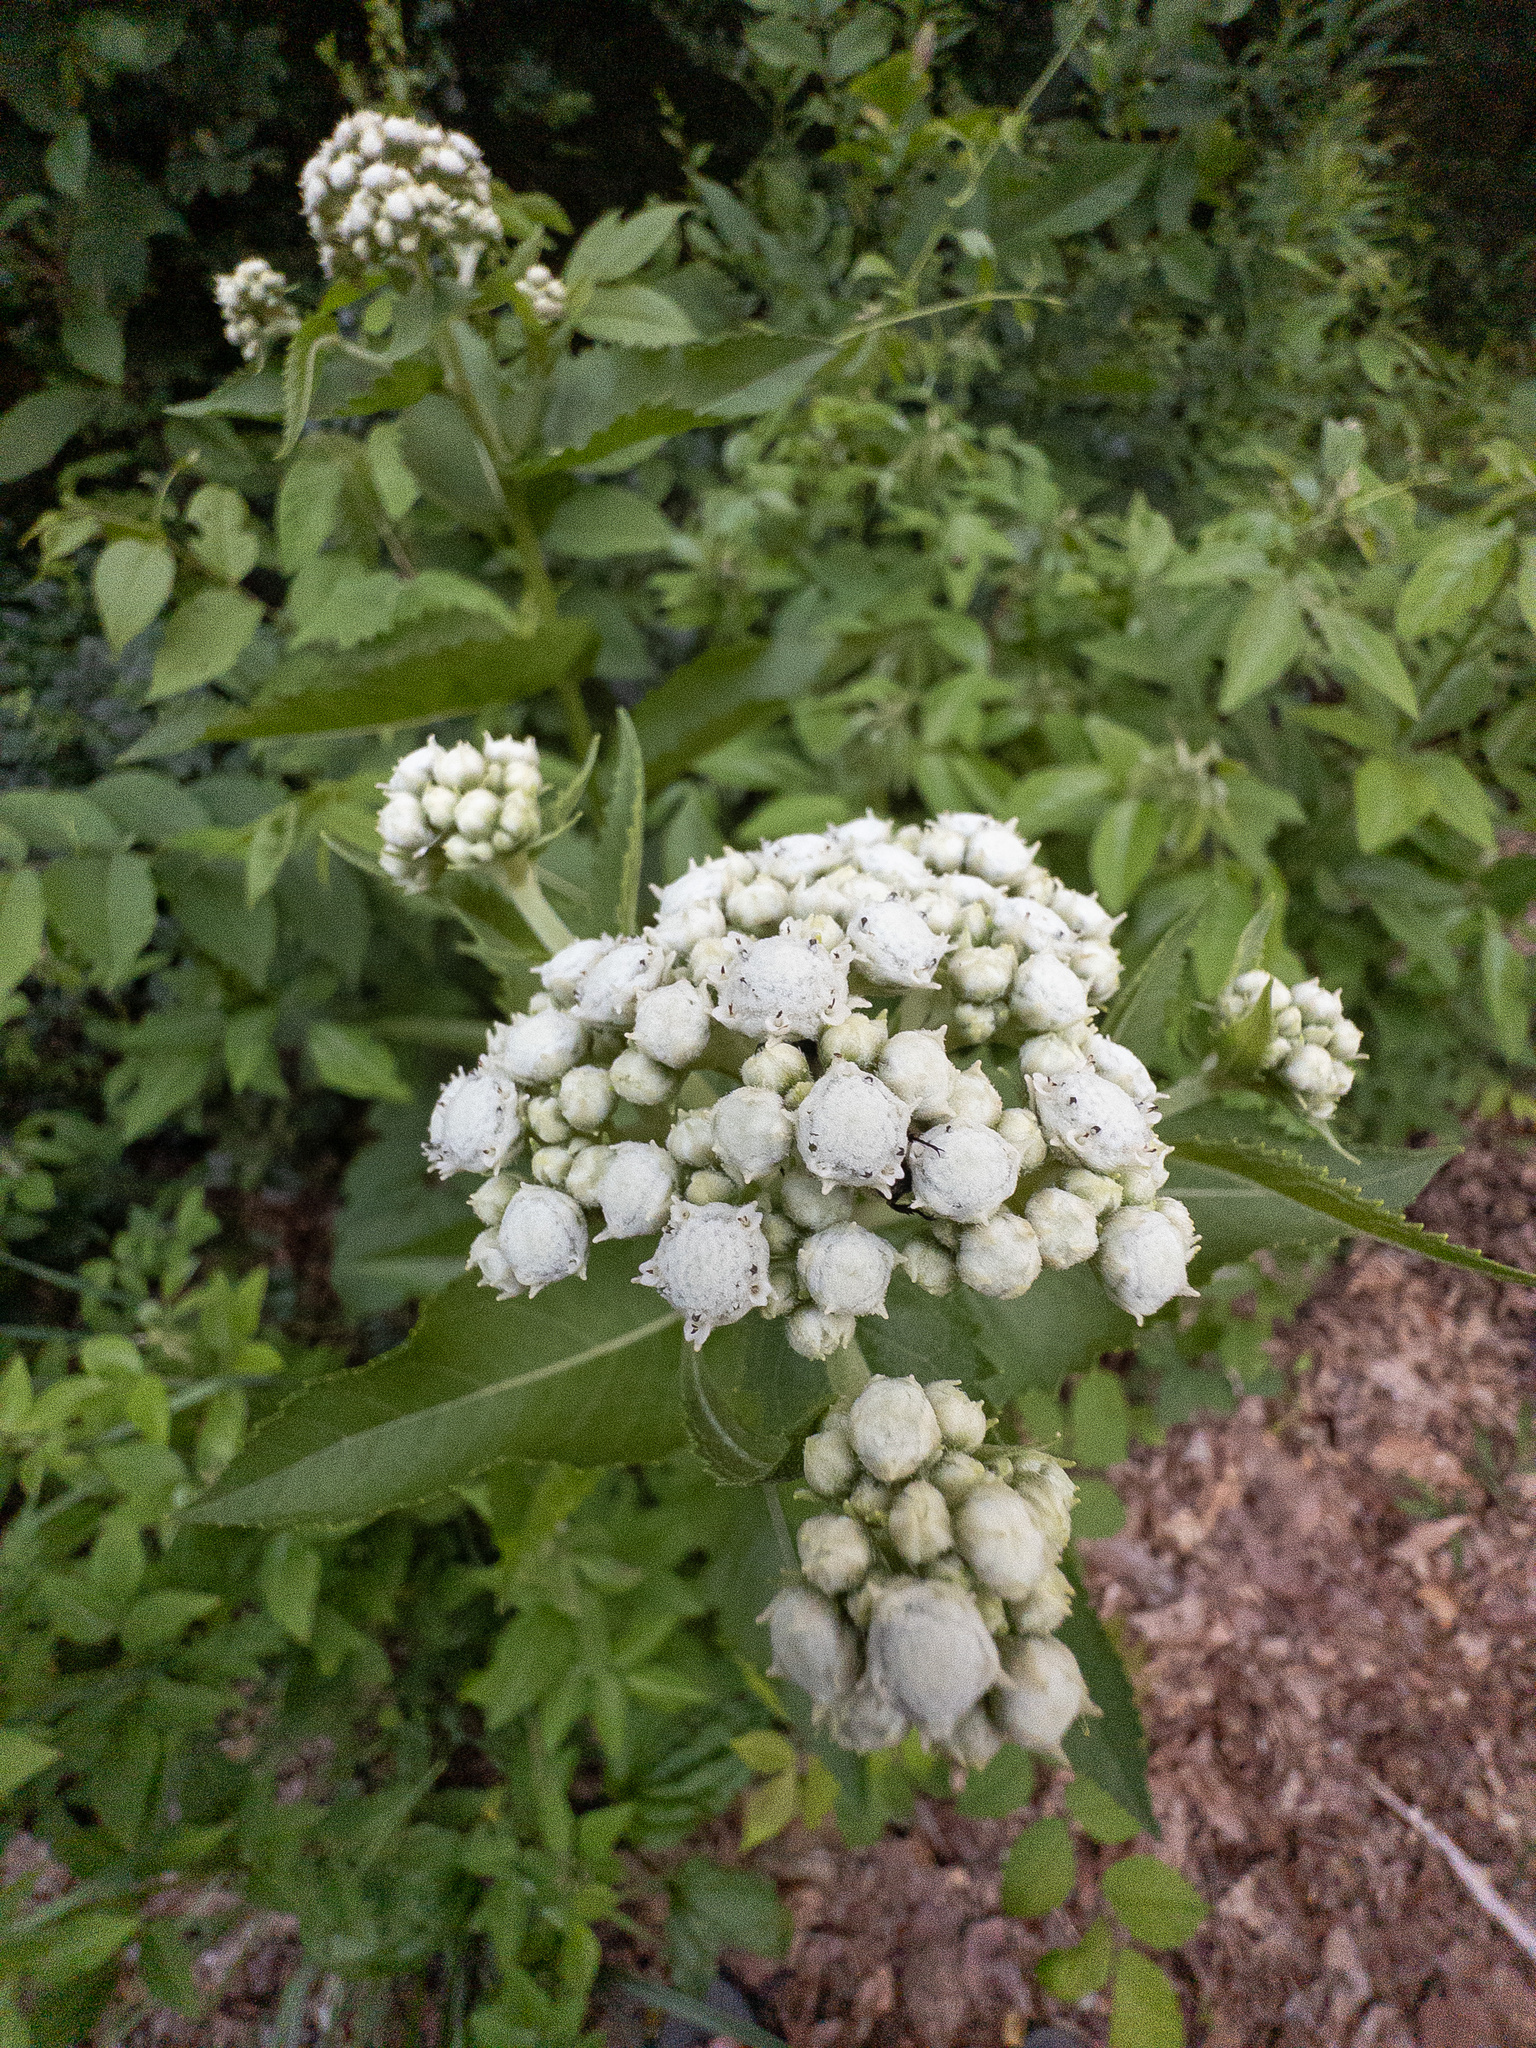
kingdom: Plantae
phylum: Tracheophyta
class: Magnoliopsida
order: Asterales
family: Asteraceae
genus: Parthenium
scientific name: Parthenium integrifolium
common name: American feverfew
